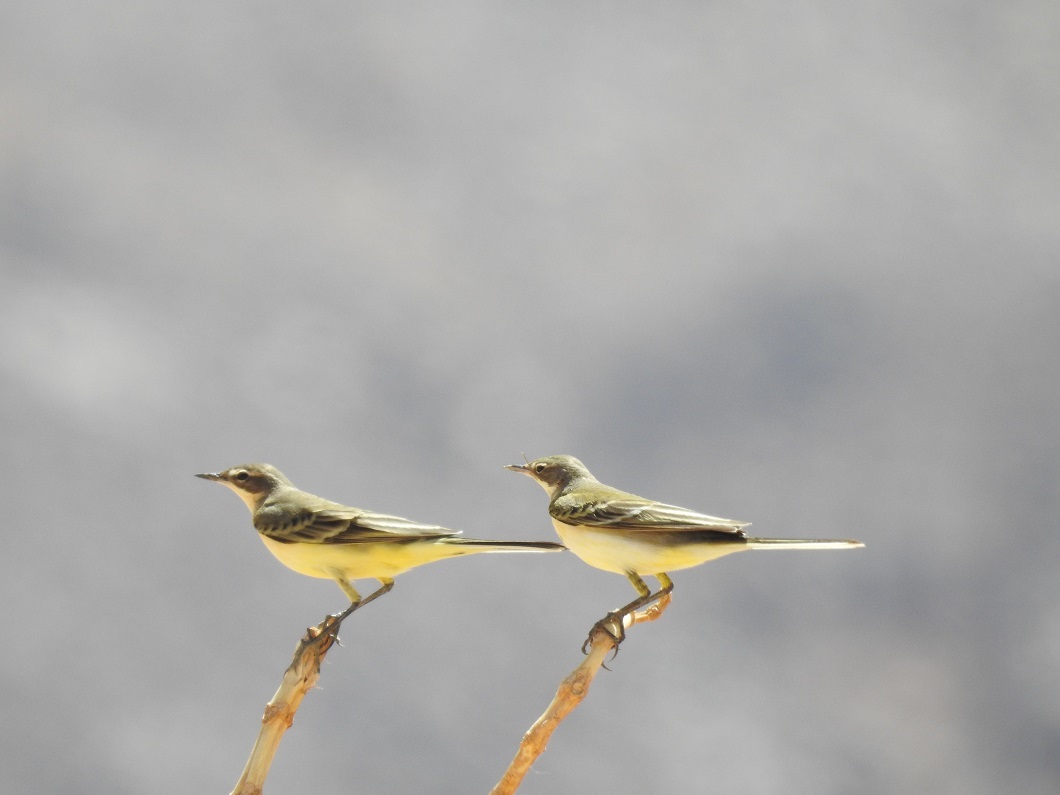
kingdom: Animalia
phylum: Chordata
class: Aves
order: Passeriformes
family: Motacillidae
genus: Motacilla
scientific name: Motacilla flava
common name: Western yellow wagtail
